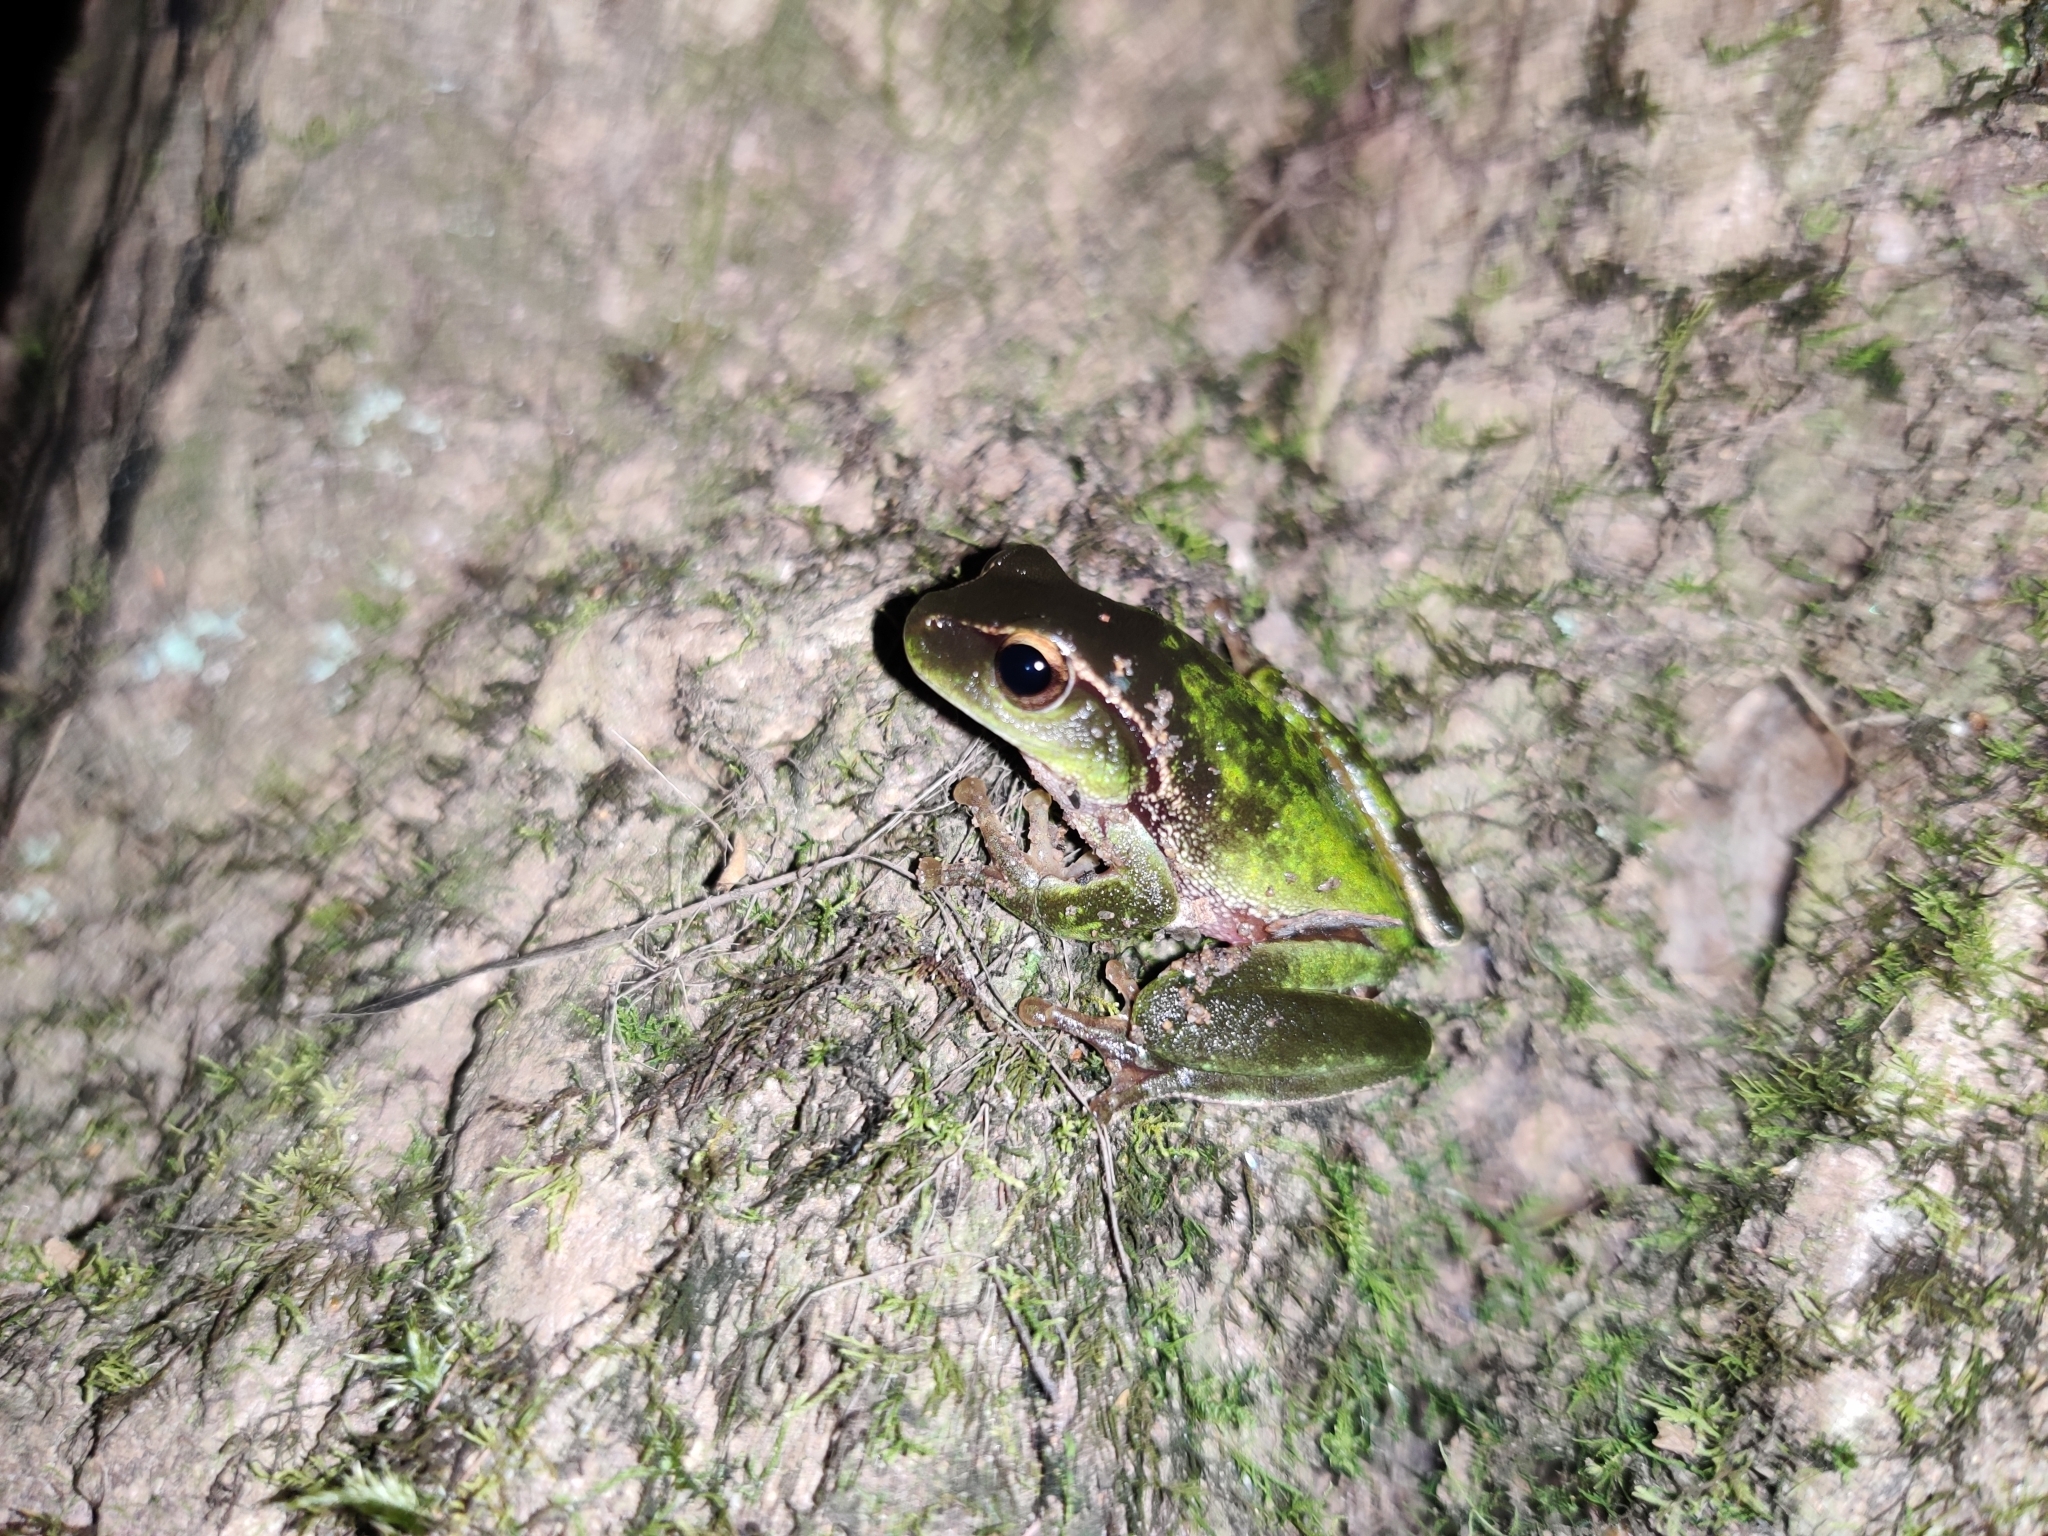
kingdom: Animalia
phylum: Chordata
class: Amphibia
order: Anura
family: Pelodryadidae
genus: Ranoidea
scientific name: Ranoidea phyllochroa
